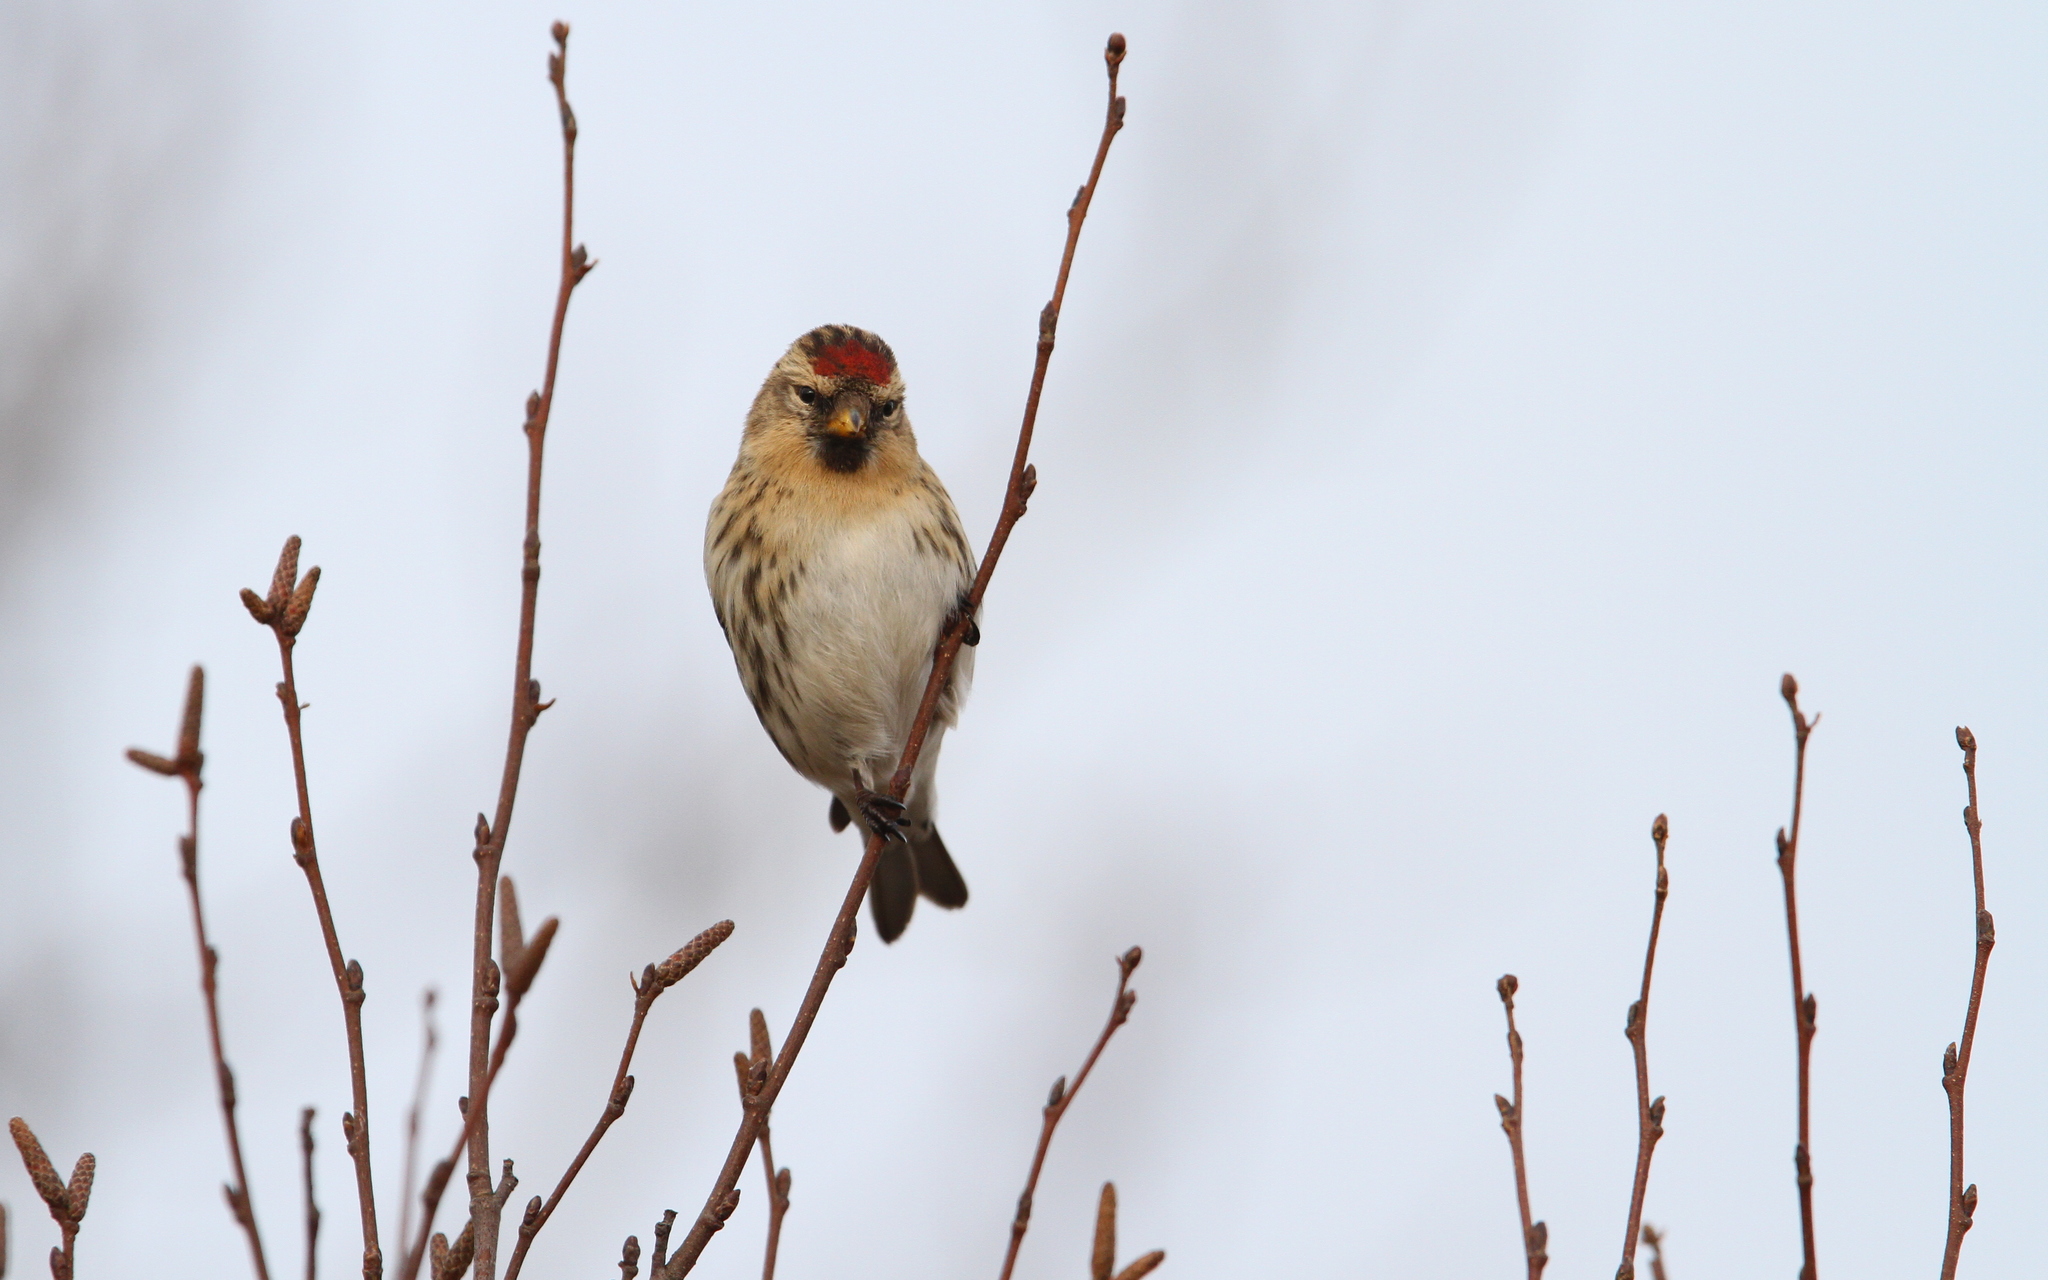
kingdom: Animalia
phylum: Chordata
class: Aves
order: Passeriformes
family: Fringillidae
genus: Acanthis
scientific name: Acanthis flammea
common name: Common redpoll
